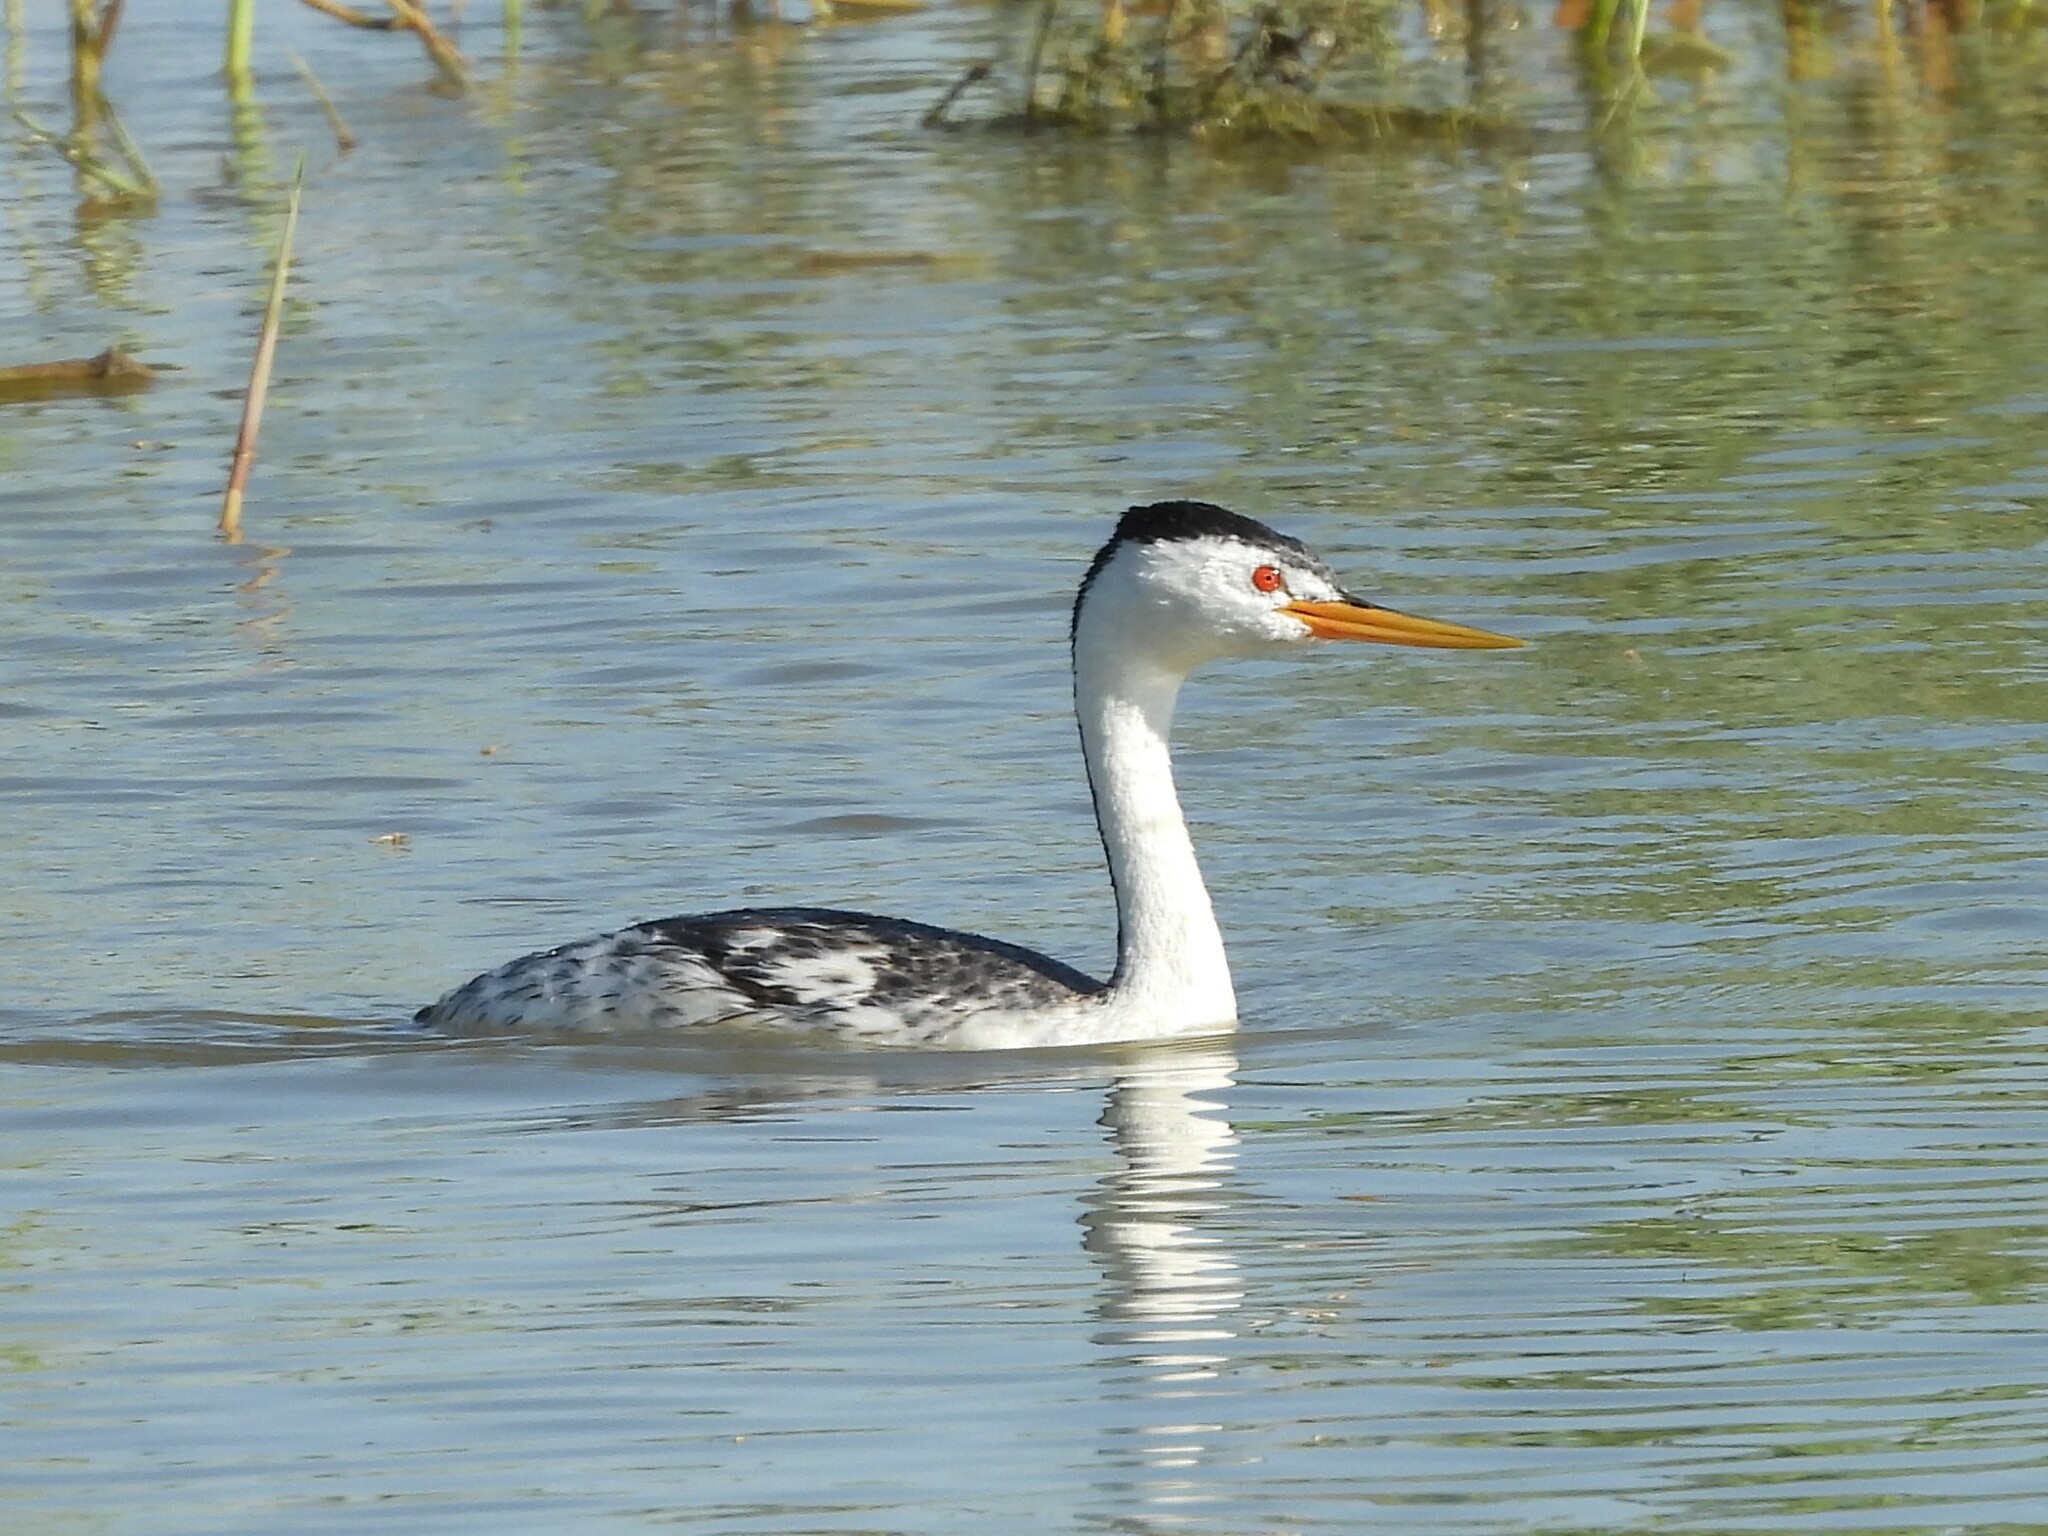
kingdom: Animalia
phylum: Chordata
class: Aves
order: Podicipediformes
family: Podicipedidae
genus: Aechmophorus
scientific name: Aechmophorus clarkii
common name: Clark's grebe
